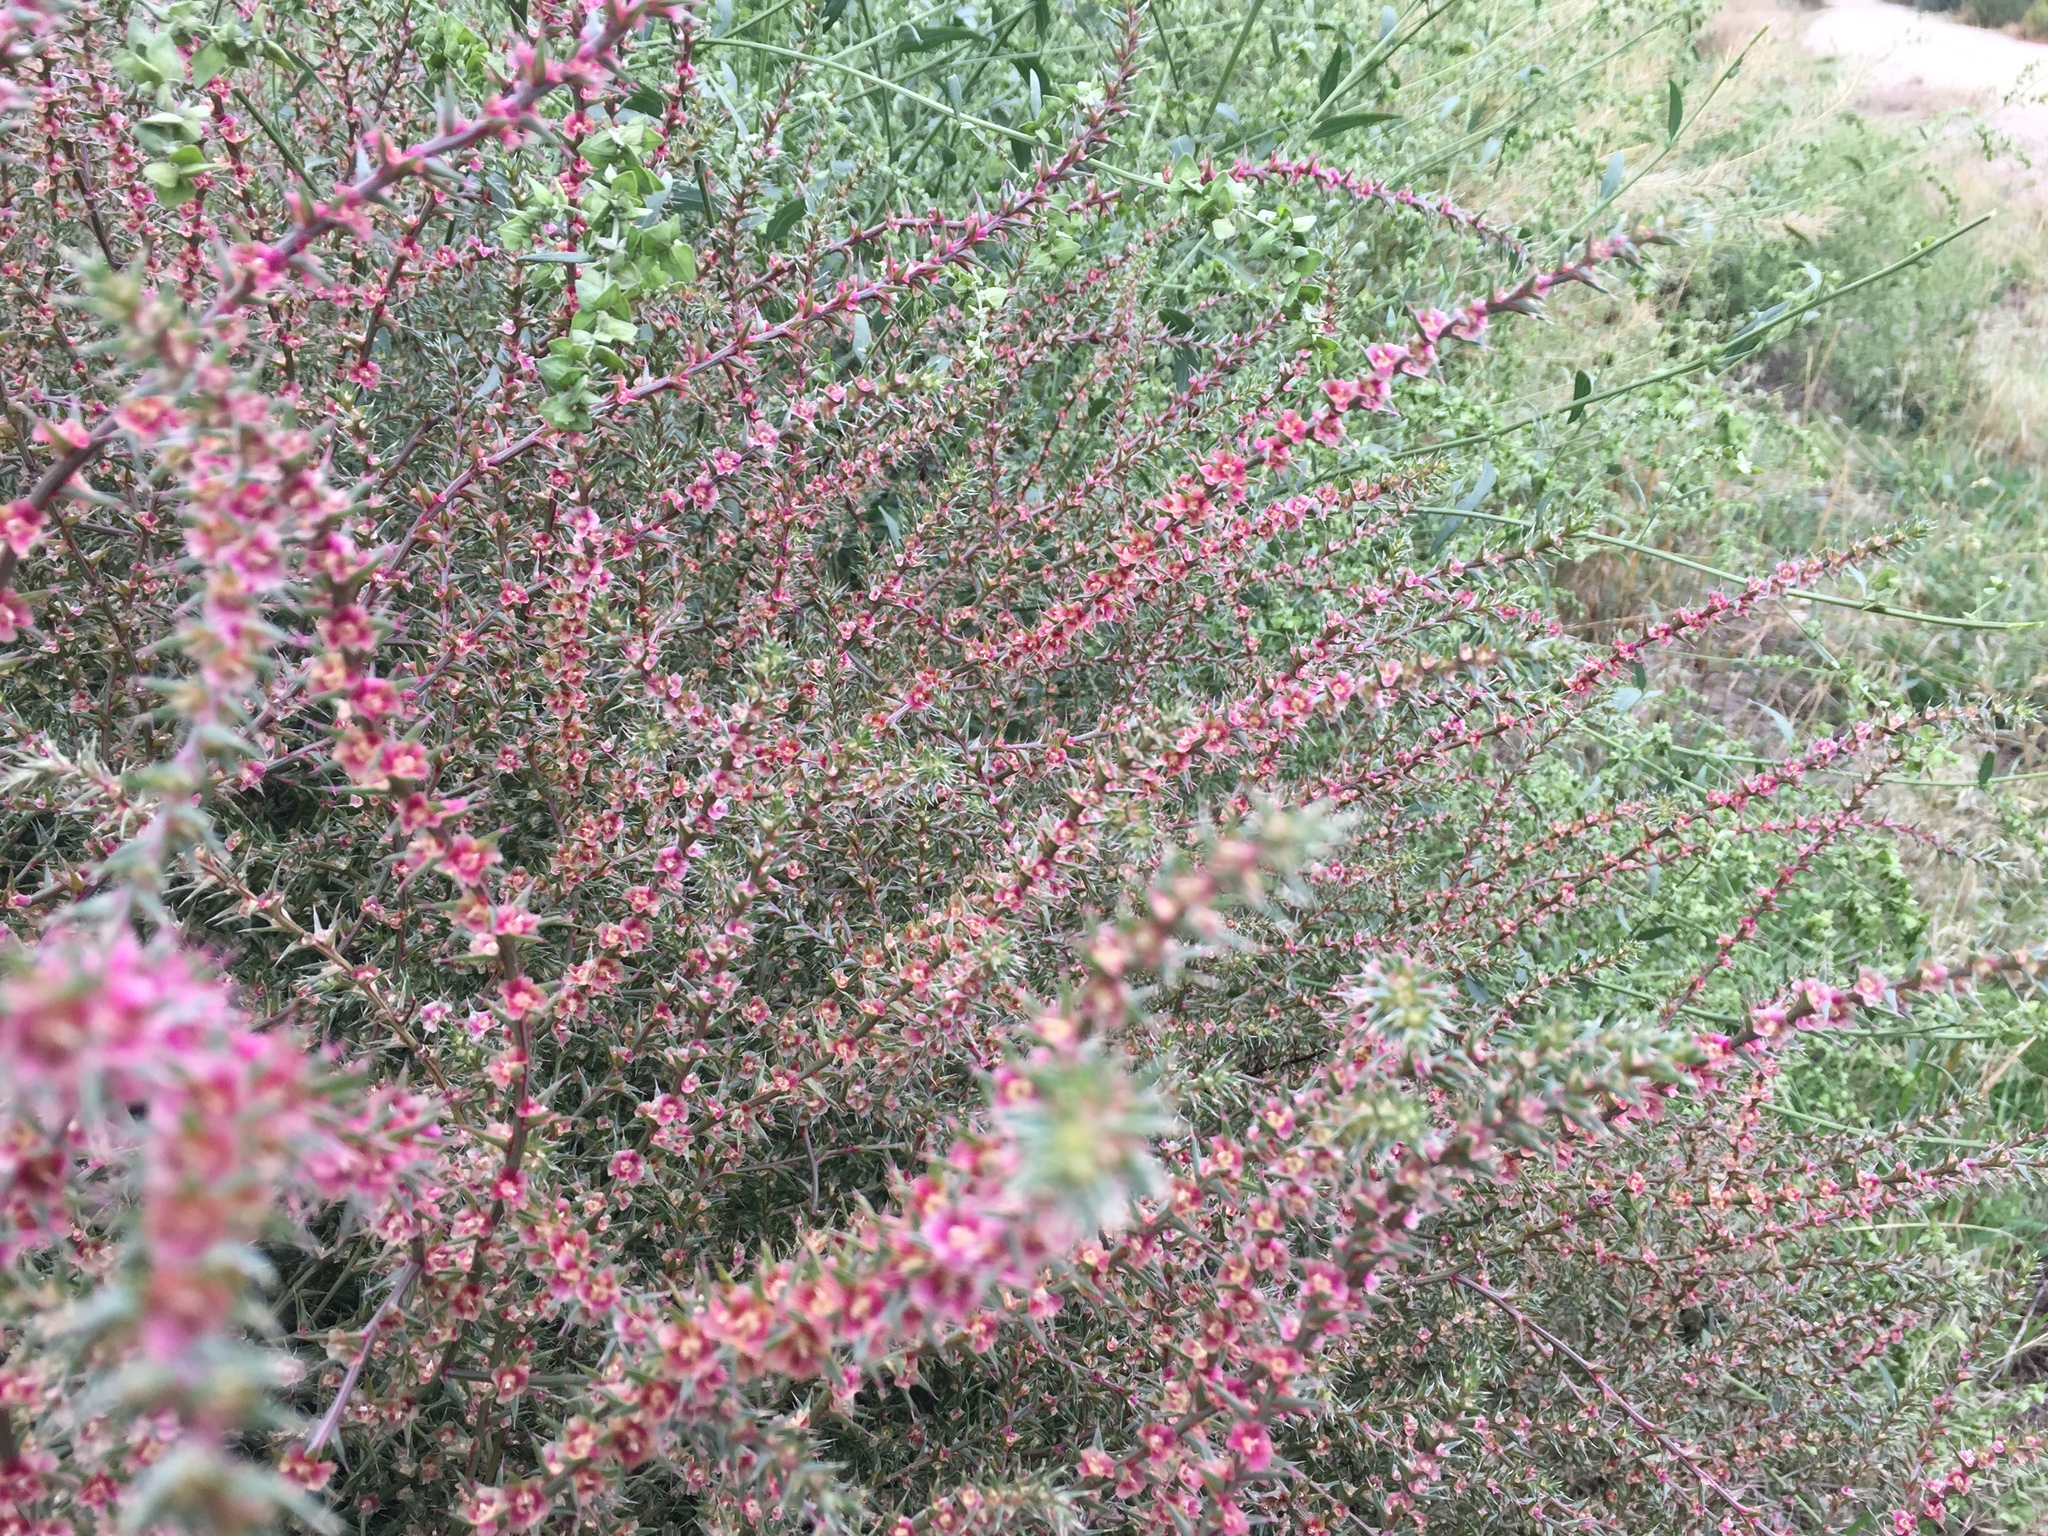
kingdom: Plantae
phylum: Tracheophyta
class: Magnoliopsida
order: Caryophyllales
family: Amaranthaceae
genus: Salsola
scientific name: Salsola tragus
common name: Prickly russian thistle
